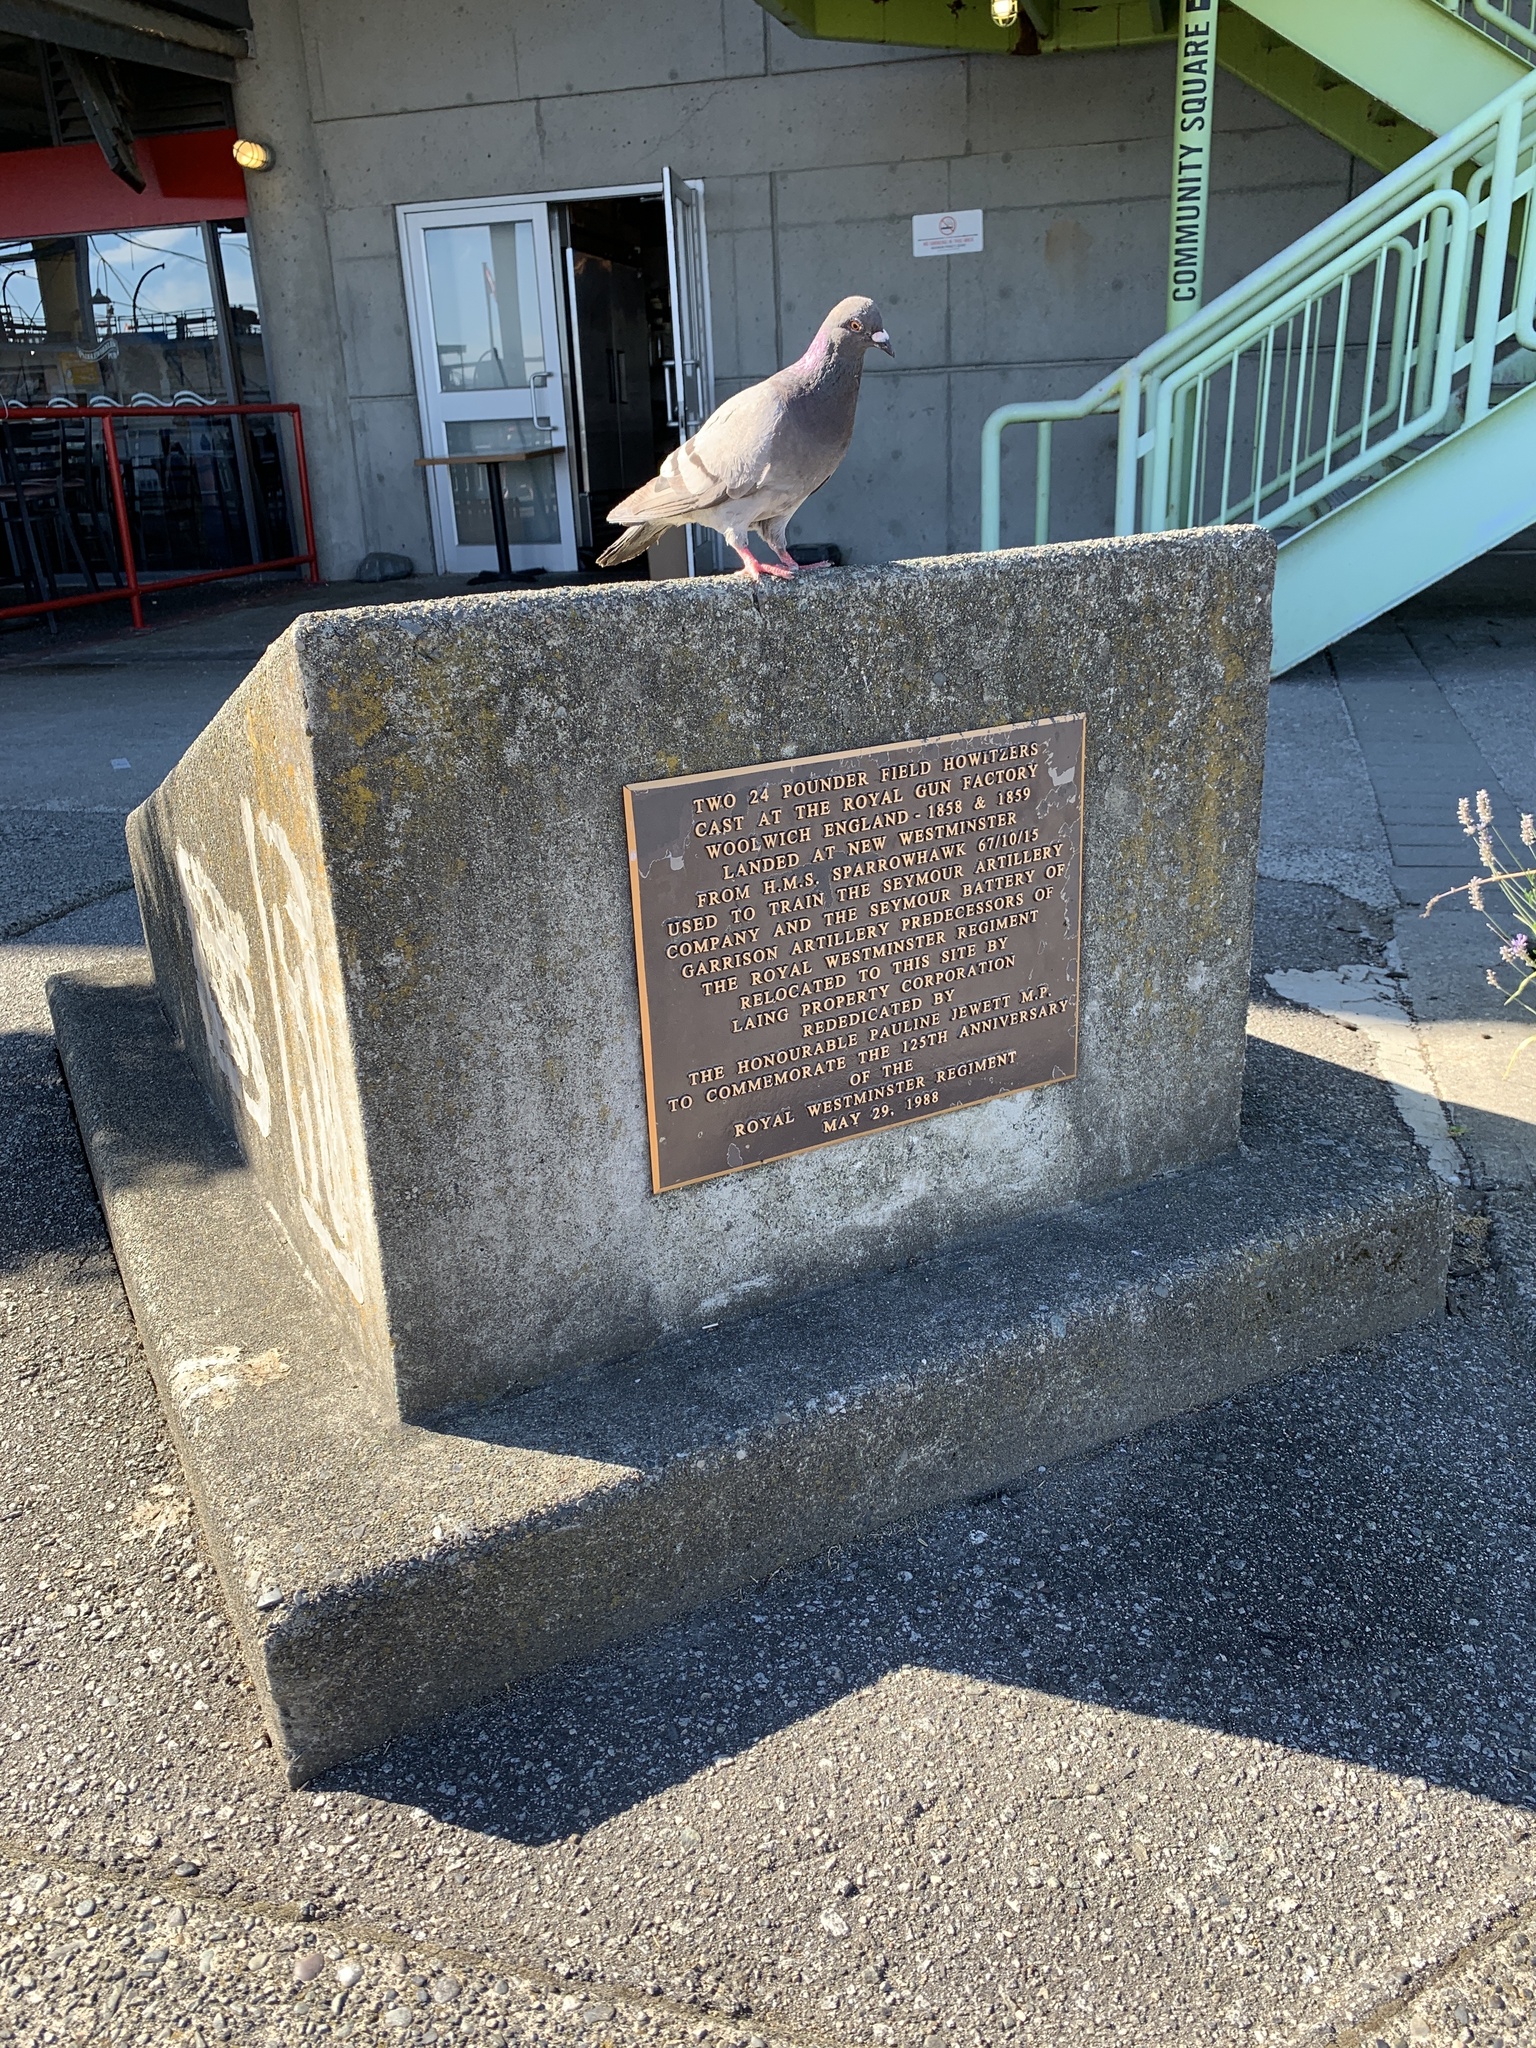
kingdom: Animalia
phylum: Chordata
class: Aves
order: Columbiformes
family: Columbidae
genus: Columba
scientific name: Columba livia
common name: Rock pigeon
